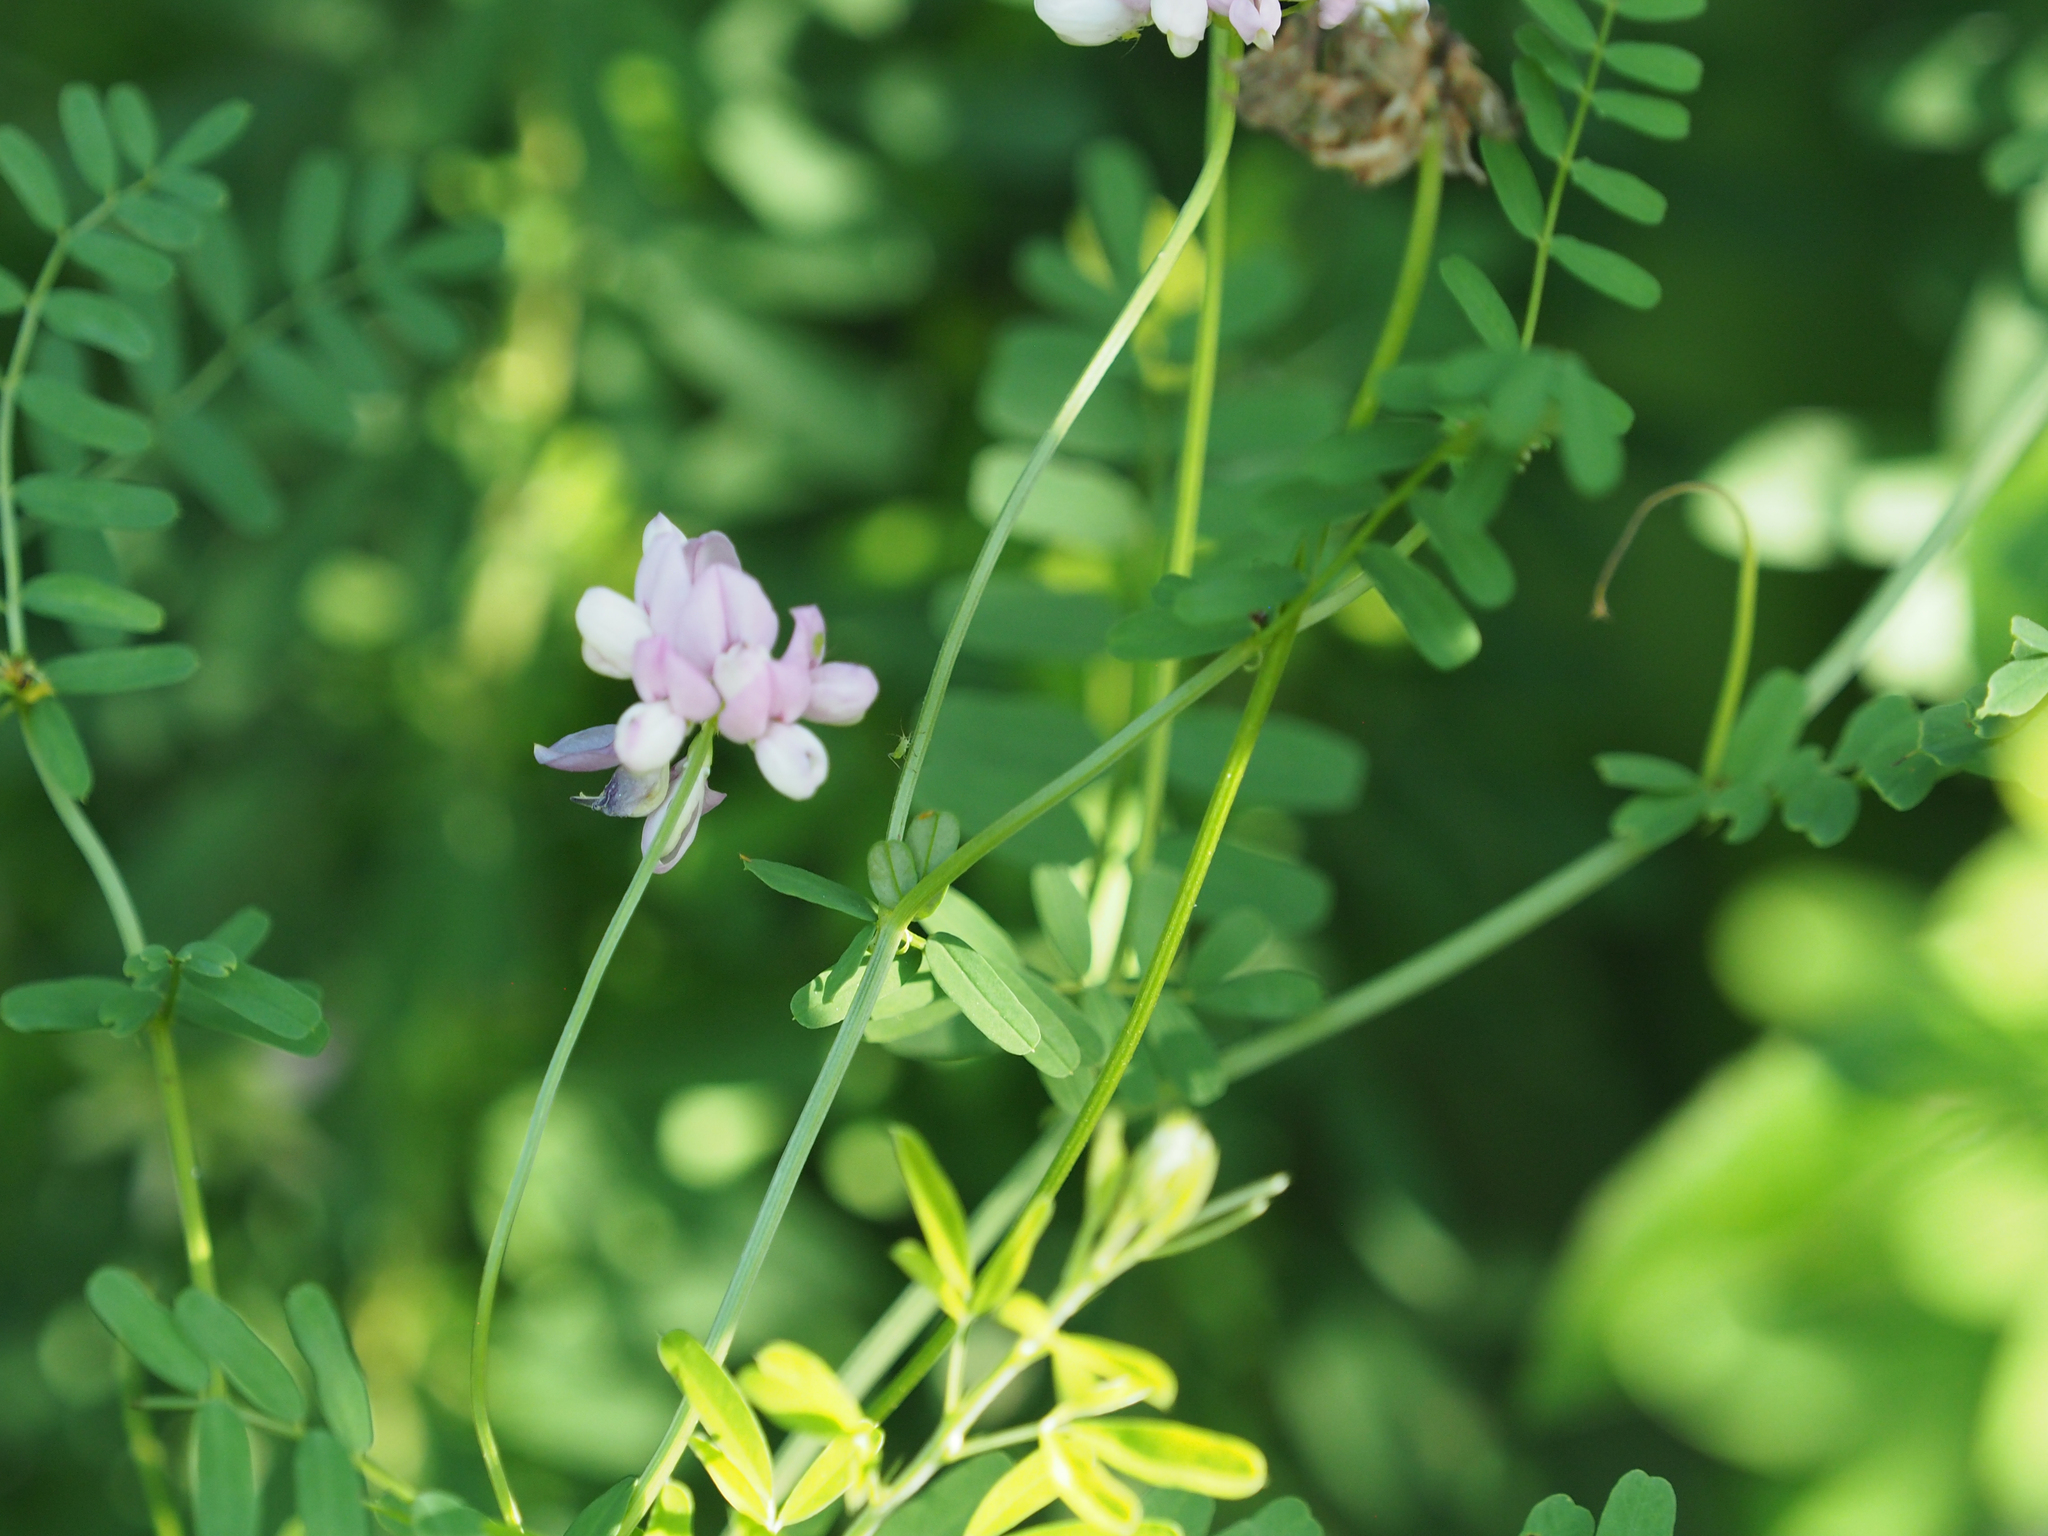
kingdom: Plantae
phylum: Tracheophyta
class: Magnoliopsida
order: Fabales
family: Fabaceae
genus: Coronilla
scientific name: Coronilla varia
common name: Crownvetch
